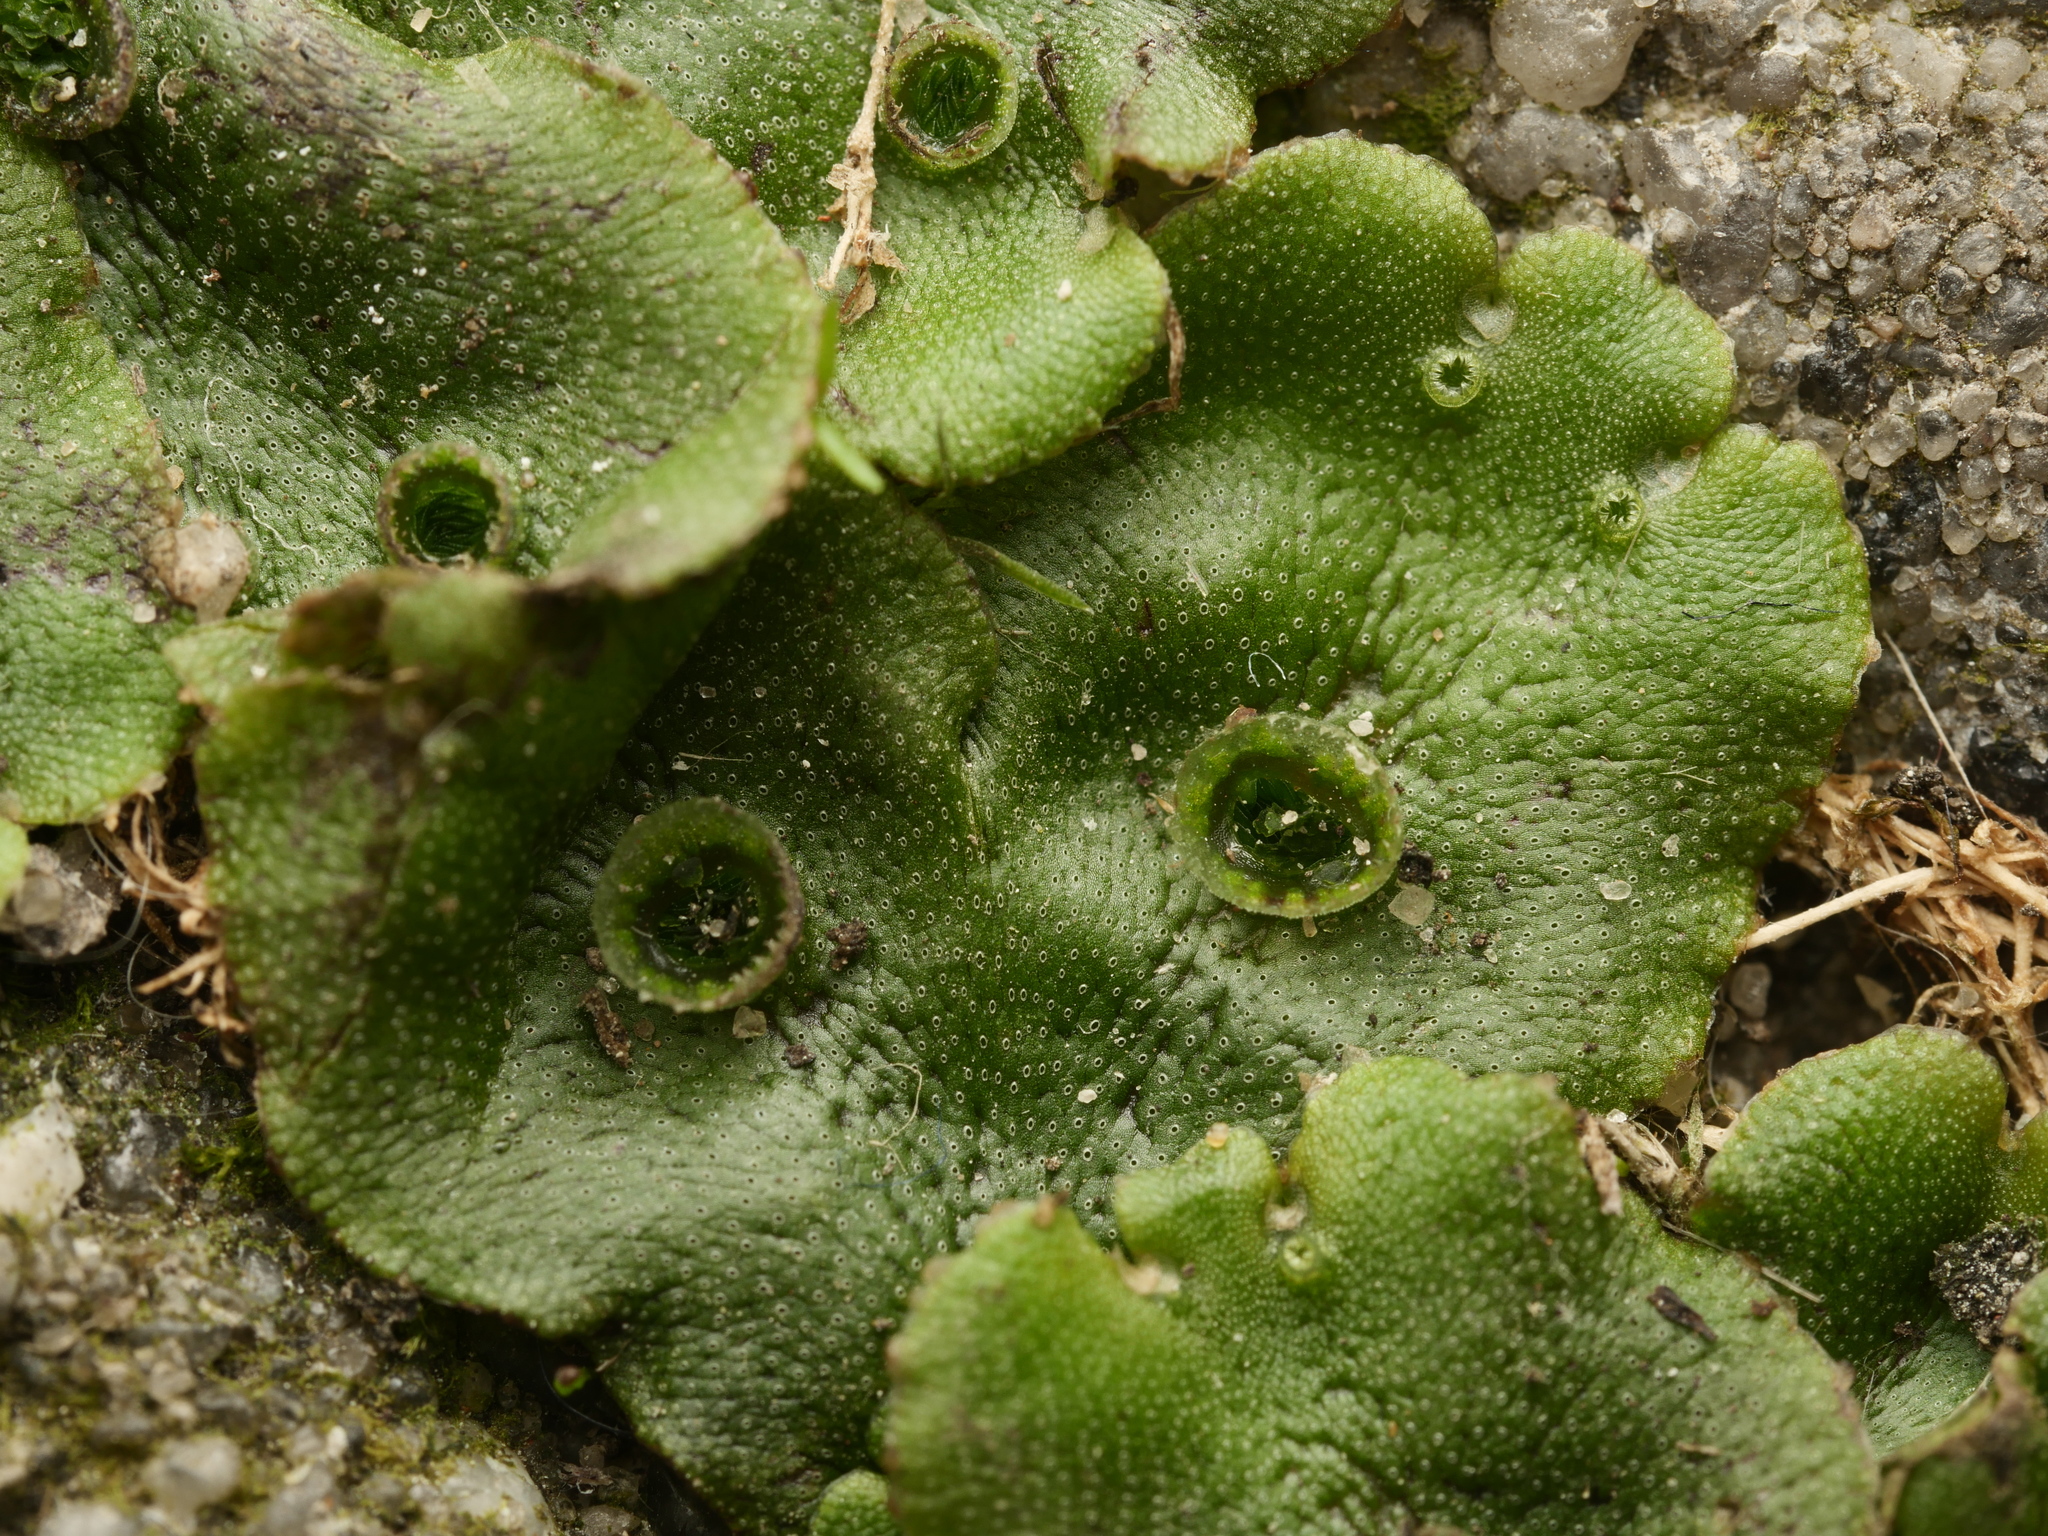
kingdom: Plantae
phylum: Marchantiophyta
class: Marchantiopsida
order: Marchantiales
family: Marchantiaceae
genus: Marchantia
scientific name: Marchantia polymorpha
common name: Common liverwort
